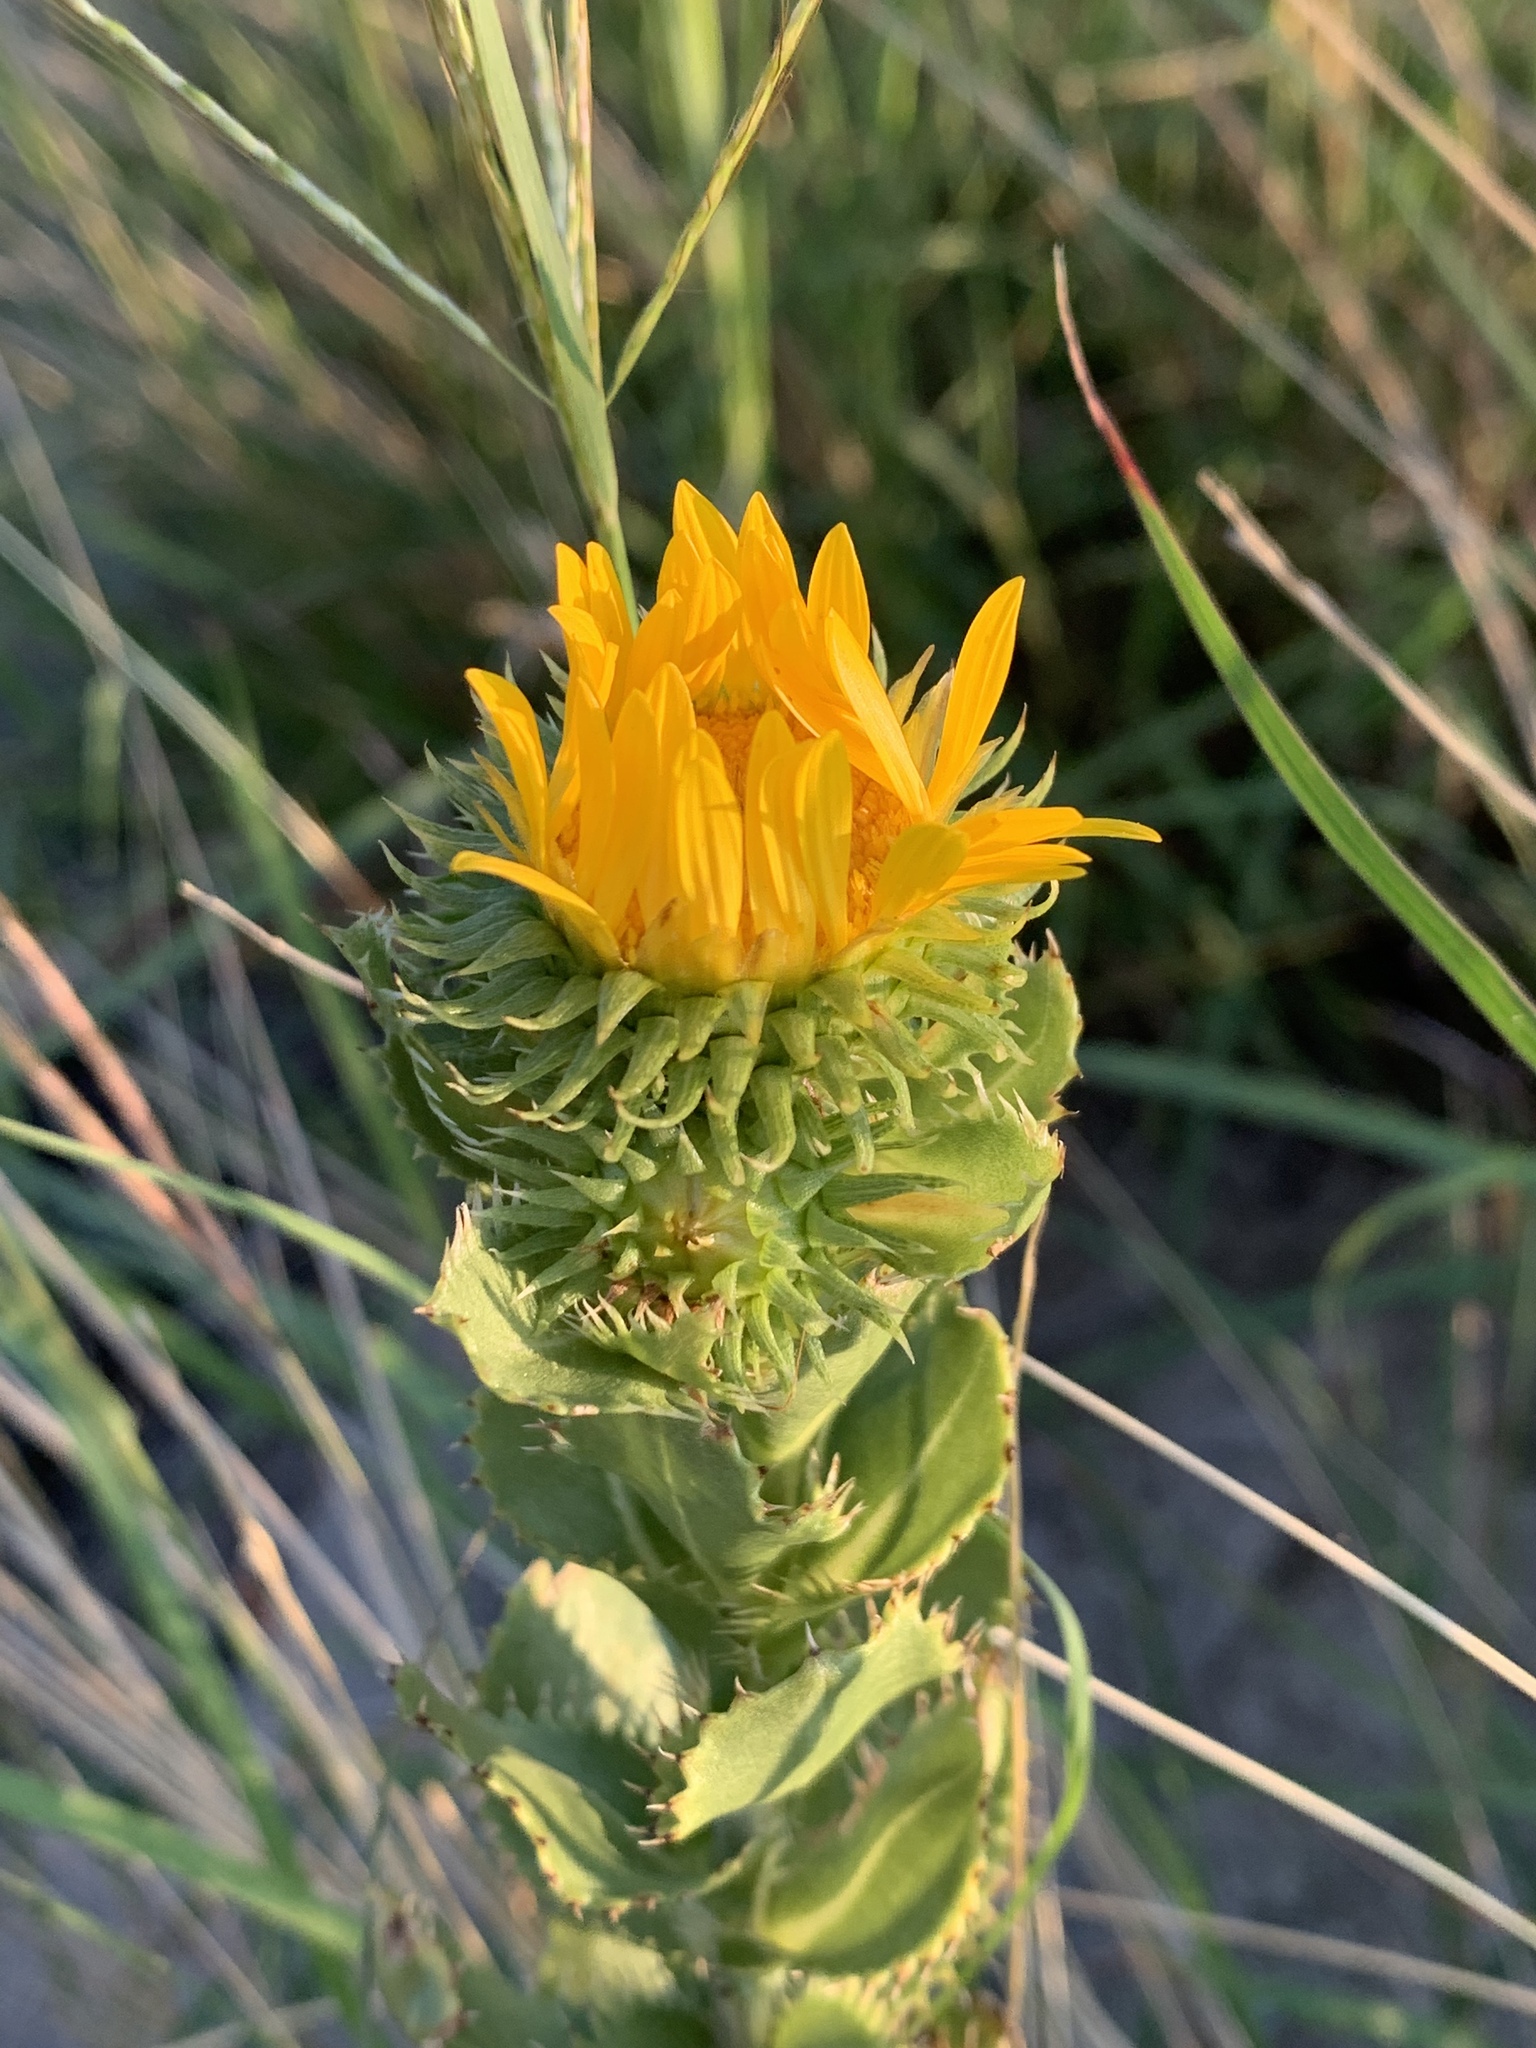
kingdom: Plantae
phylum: Tracheophyta
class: Magnoliopsida
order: Asterales
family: Asteraceae
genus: Grindelia
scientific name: Grindelia ciliata
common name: Goldenweed
